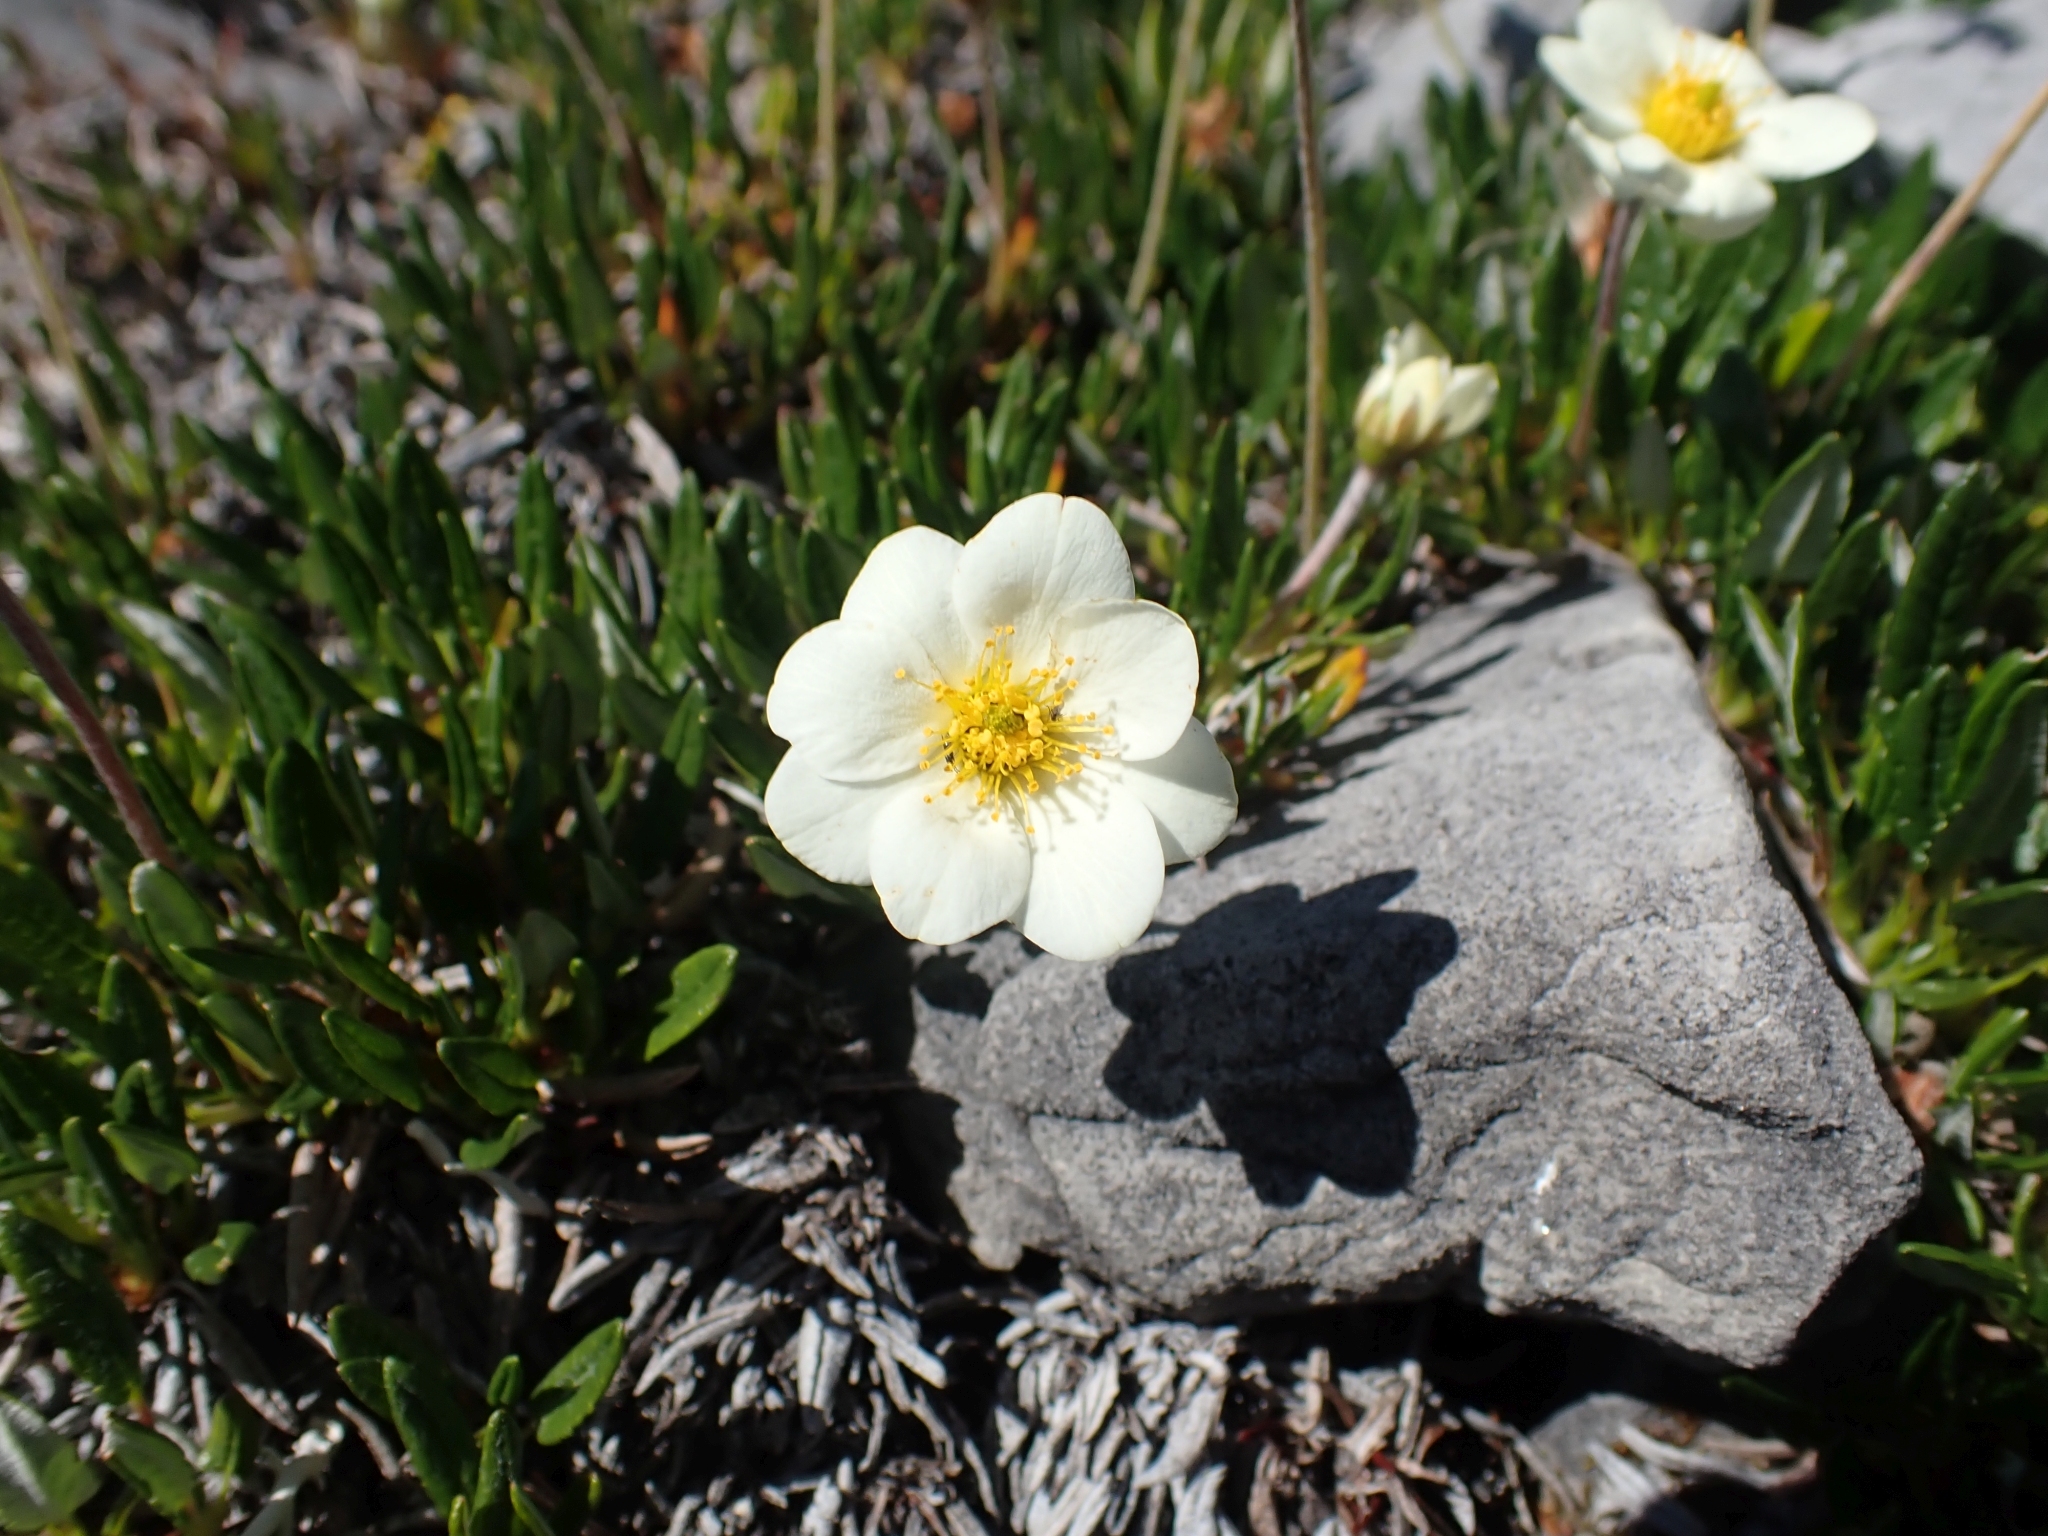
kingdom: Plantae
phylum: Tracheophyta
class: Magnoliopsida
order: Rosales
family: Rosaceae
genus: Dryas
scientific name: Dryas integrifolia
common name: Entire-leaved mountain avens
